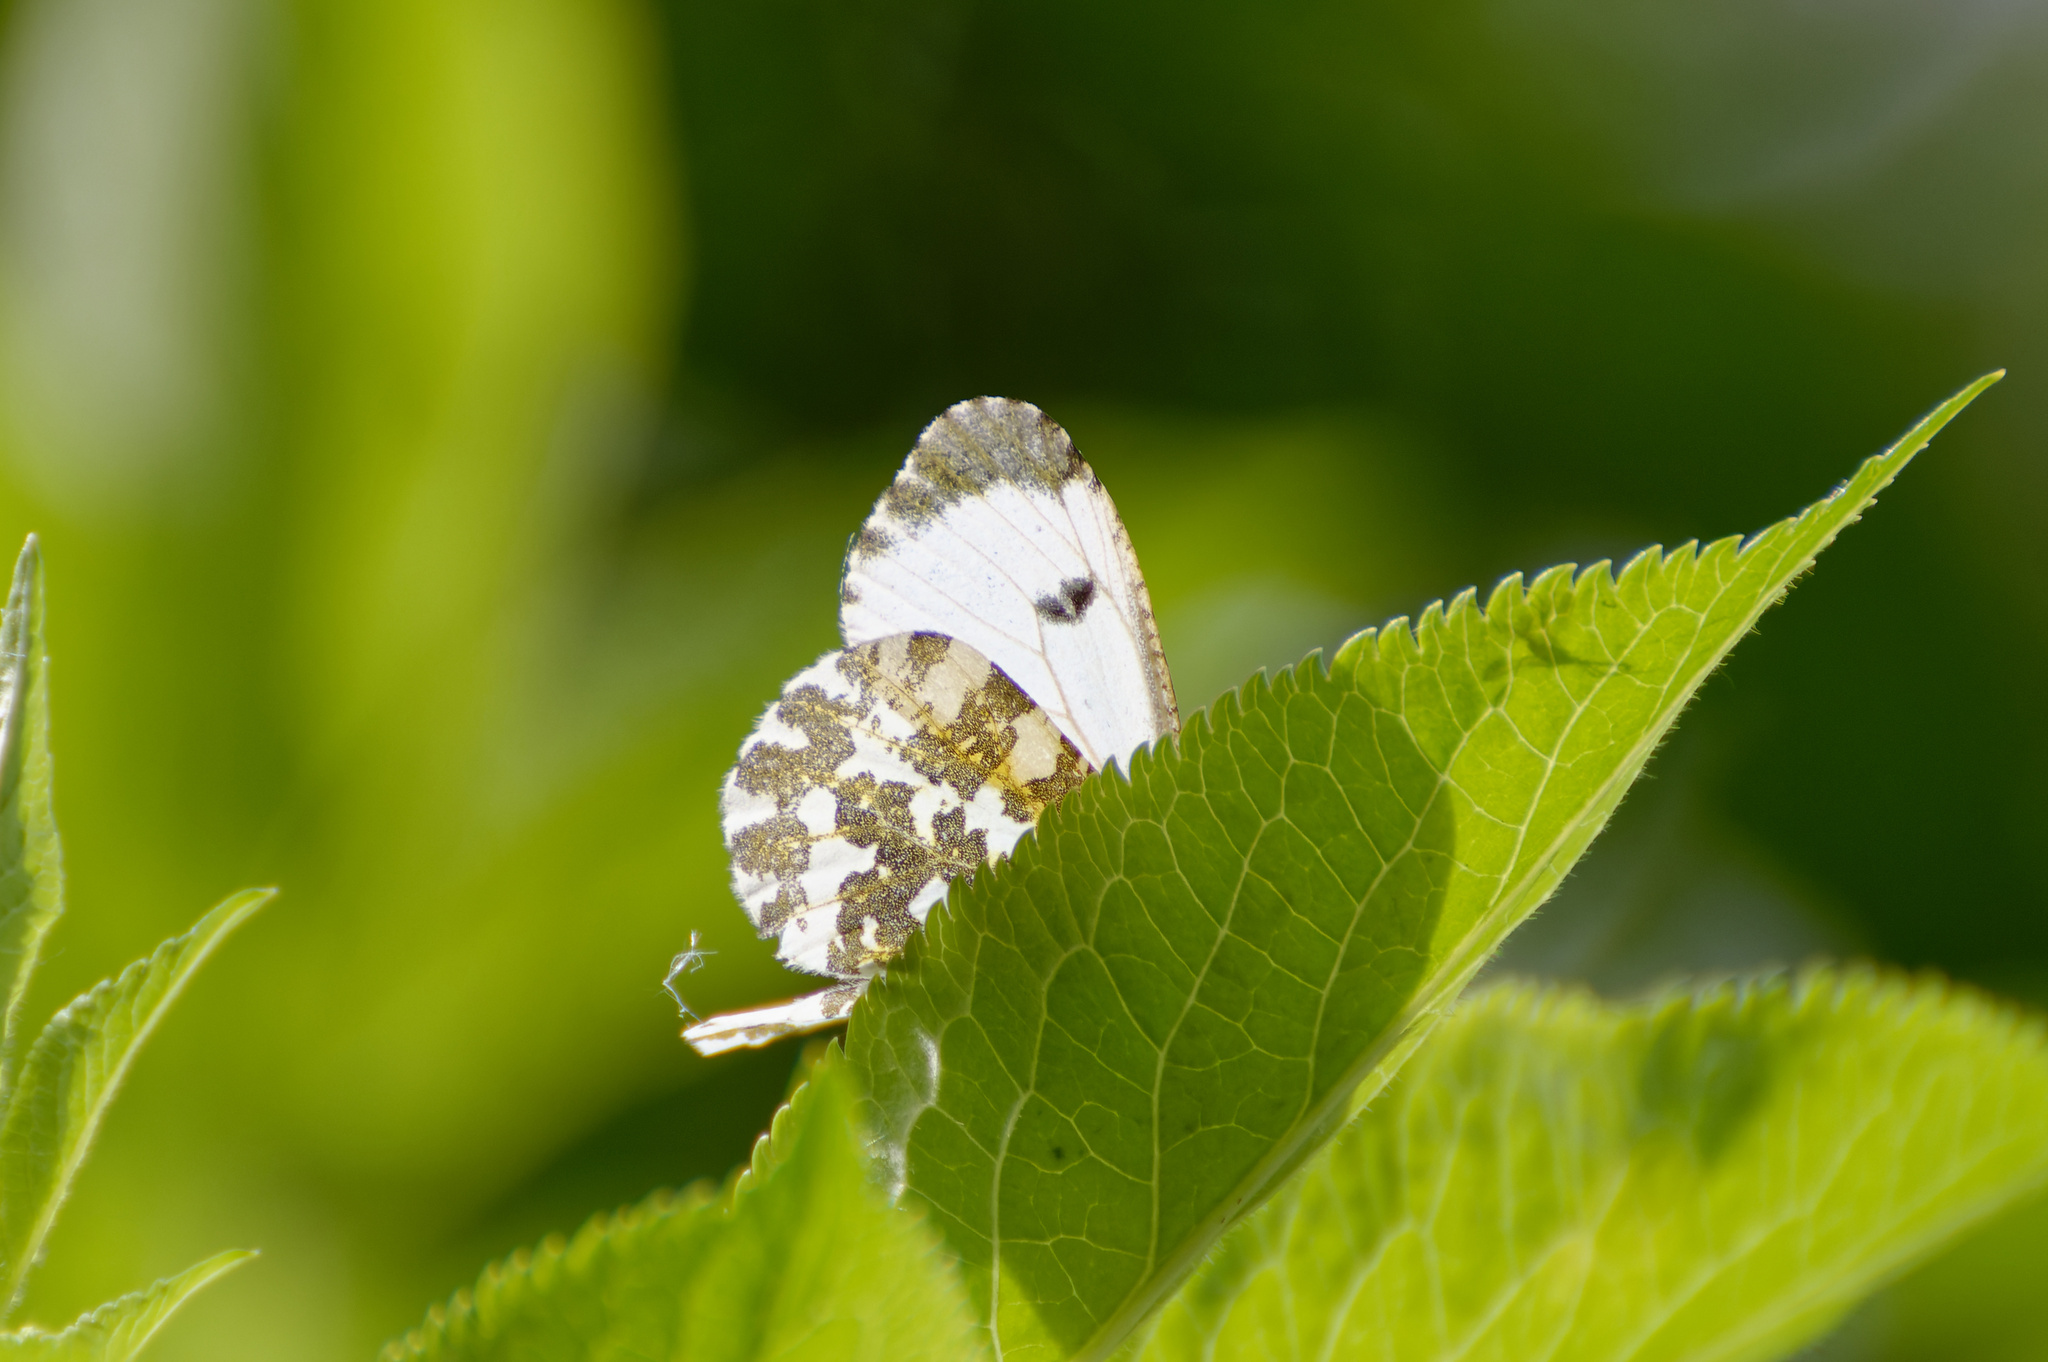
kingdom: Animalia
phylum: Arthropoda
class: Insecta
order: Lepidoptera
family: Pieridae
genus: Anthocharis
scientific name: Anthocharis cardamines
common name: Orange-tip
